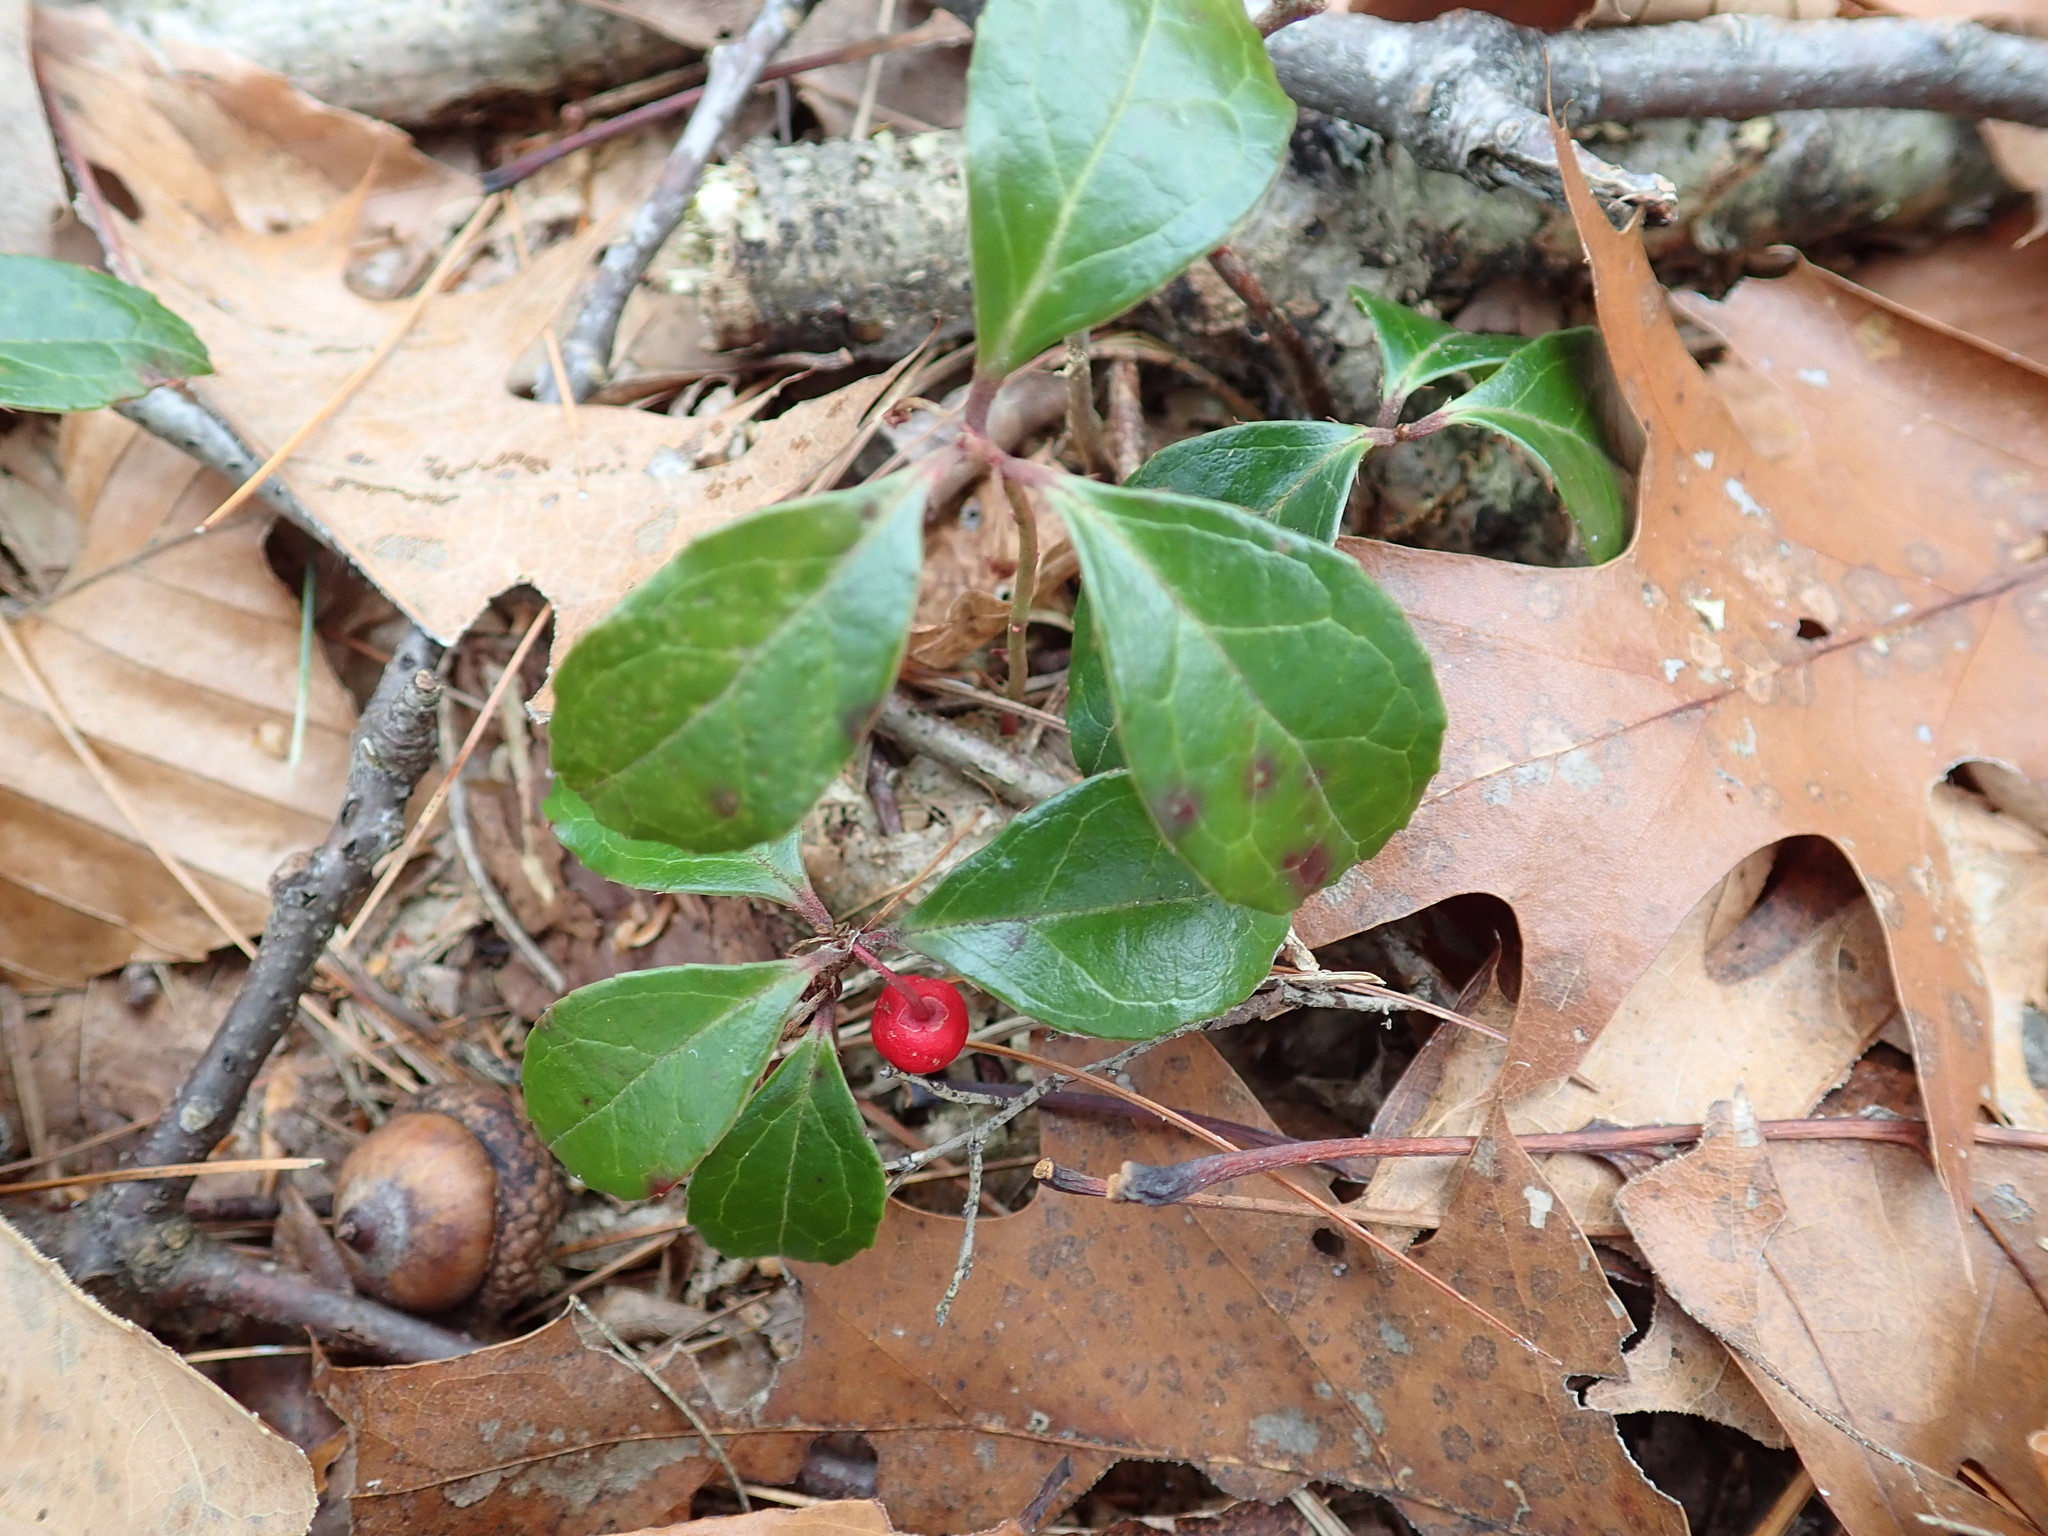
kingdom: Plantae
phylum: Tracheophyta
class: Magnoliopsida
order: Ericales
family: Ericaceae
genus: Gaultheria
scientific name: Gaultheria procumbens
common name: Checkerberry
